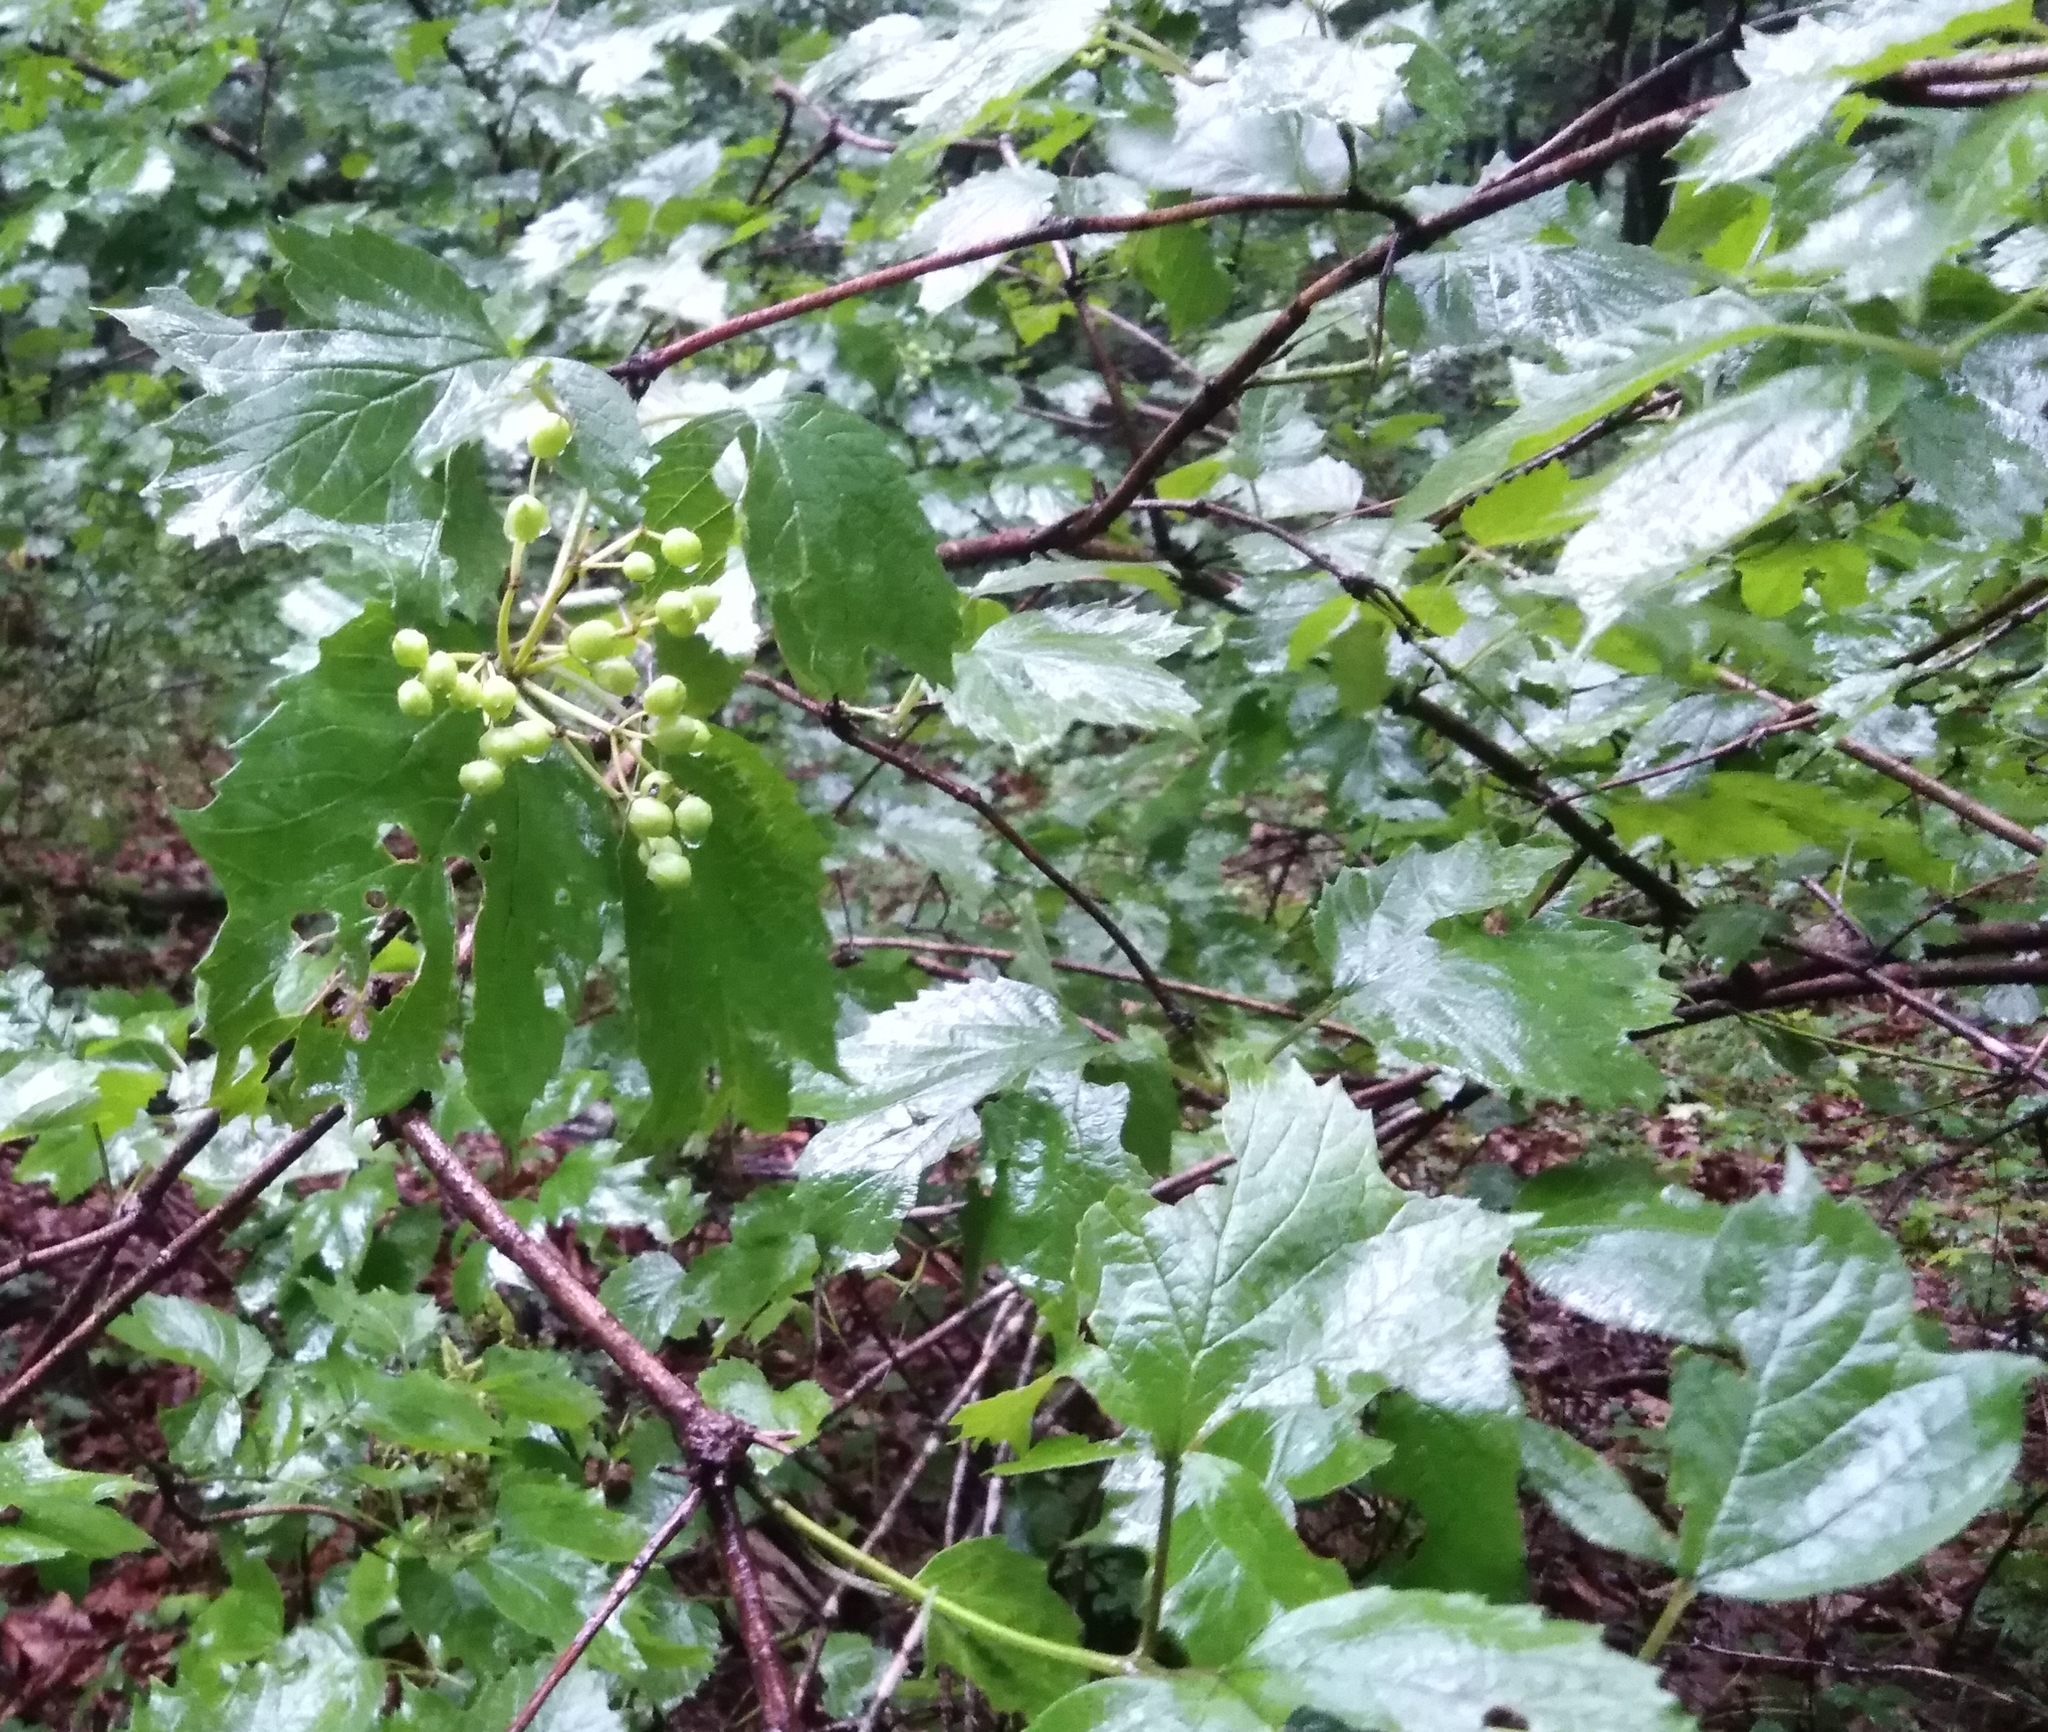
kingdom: Plantae
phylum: Tracheophyta
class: Magnoliopsida
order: Dipsacales
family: Viburnaceae
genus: Viburnum
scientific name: Viburnum sargentii
